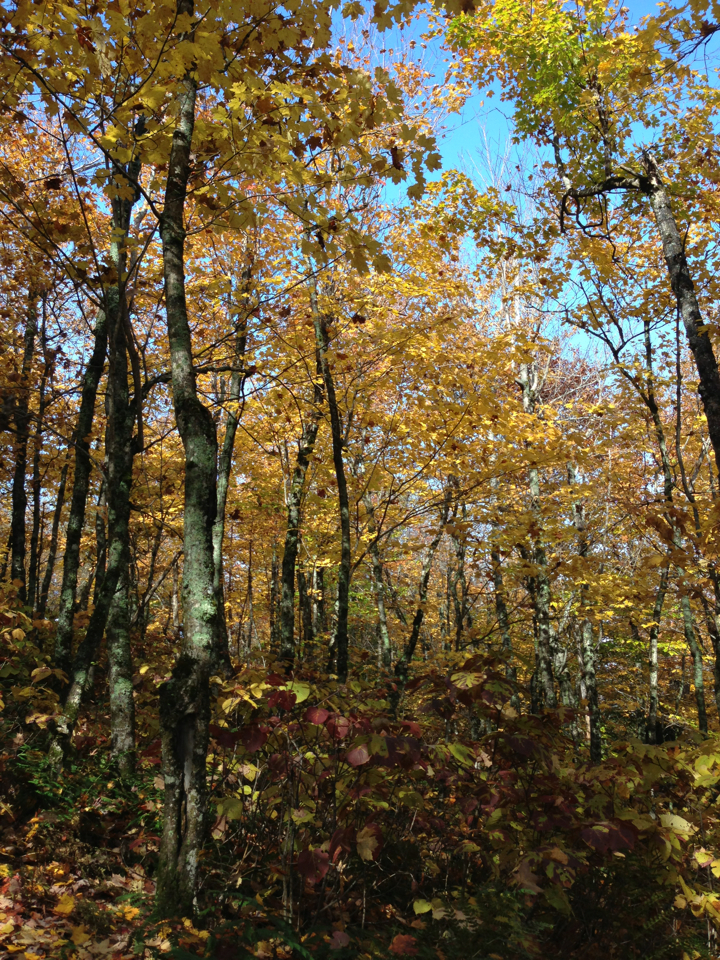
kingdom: Plantae
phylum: Tracheophyta
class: Magnoliopsida
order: Sapindales
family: Sapindaceae
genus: Acer
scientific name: Acer saccharum
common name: Sugar maple
